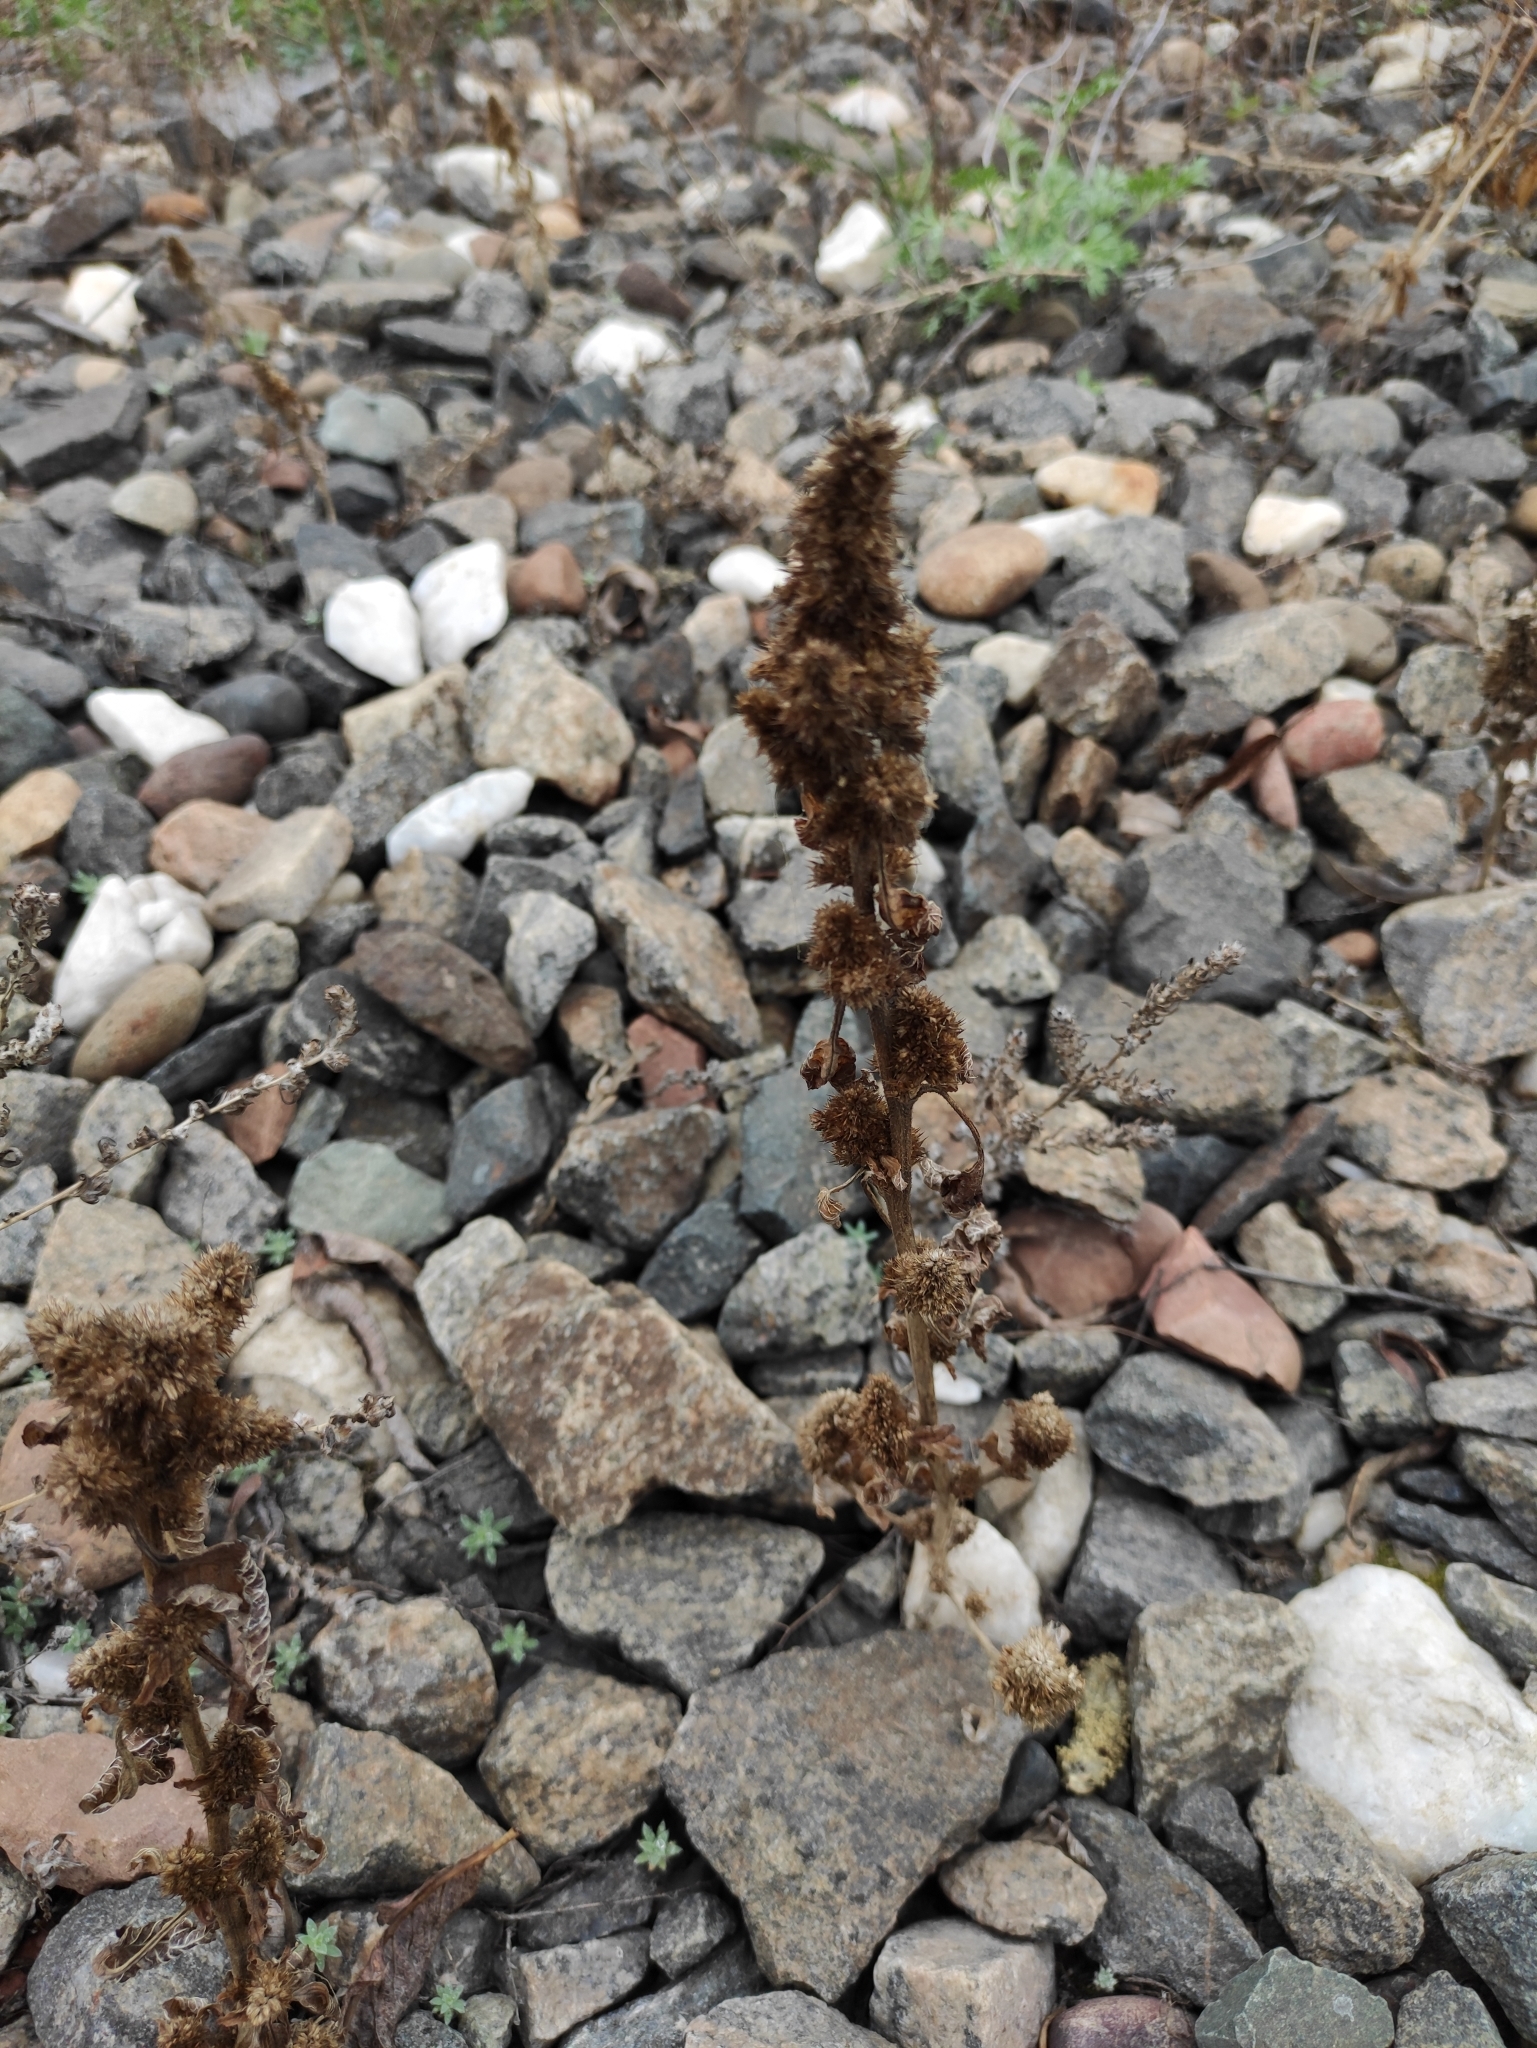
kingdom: Plantae
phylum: Tracheophyta
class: Magnoliopsida
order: Caryophyllales
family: Amaranthaceae
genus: Amaranthus
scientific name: Amaranthus retroflexus
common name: Redroot amaranth
